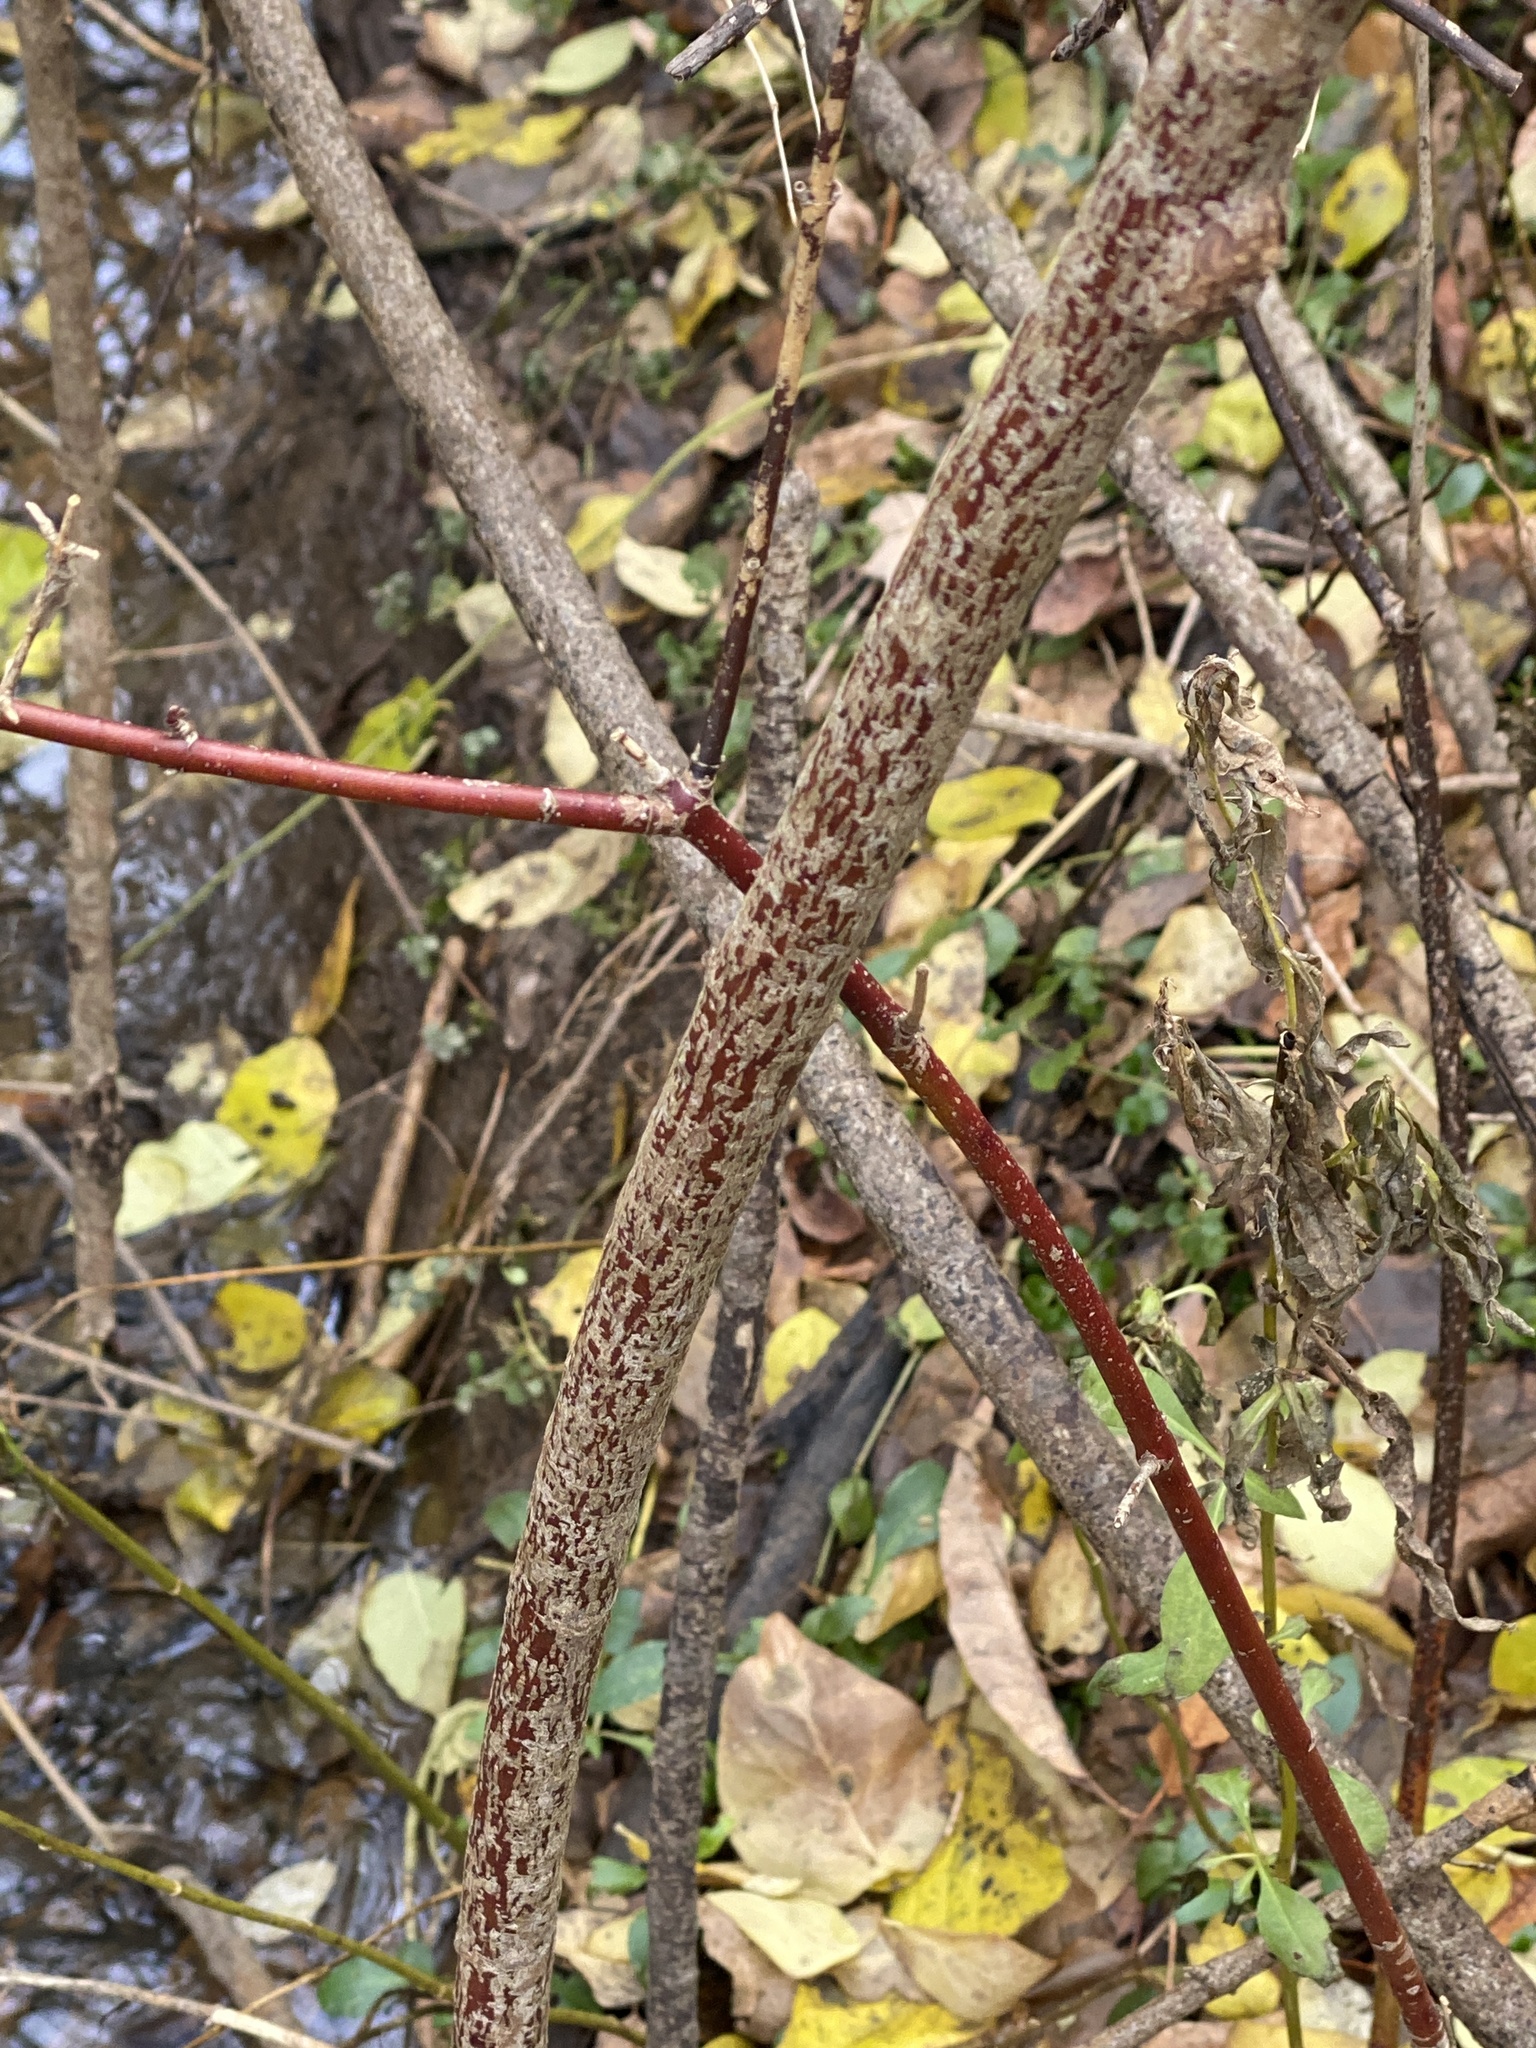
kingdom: Plantae
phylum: Tracheophyta
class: Magnoliopsida
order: Cornales
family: Cornaceae
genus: Cornus
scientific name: Cornus amomum
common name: Silky dogwood
